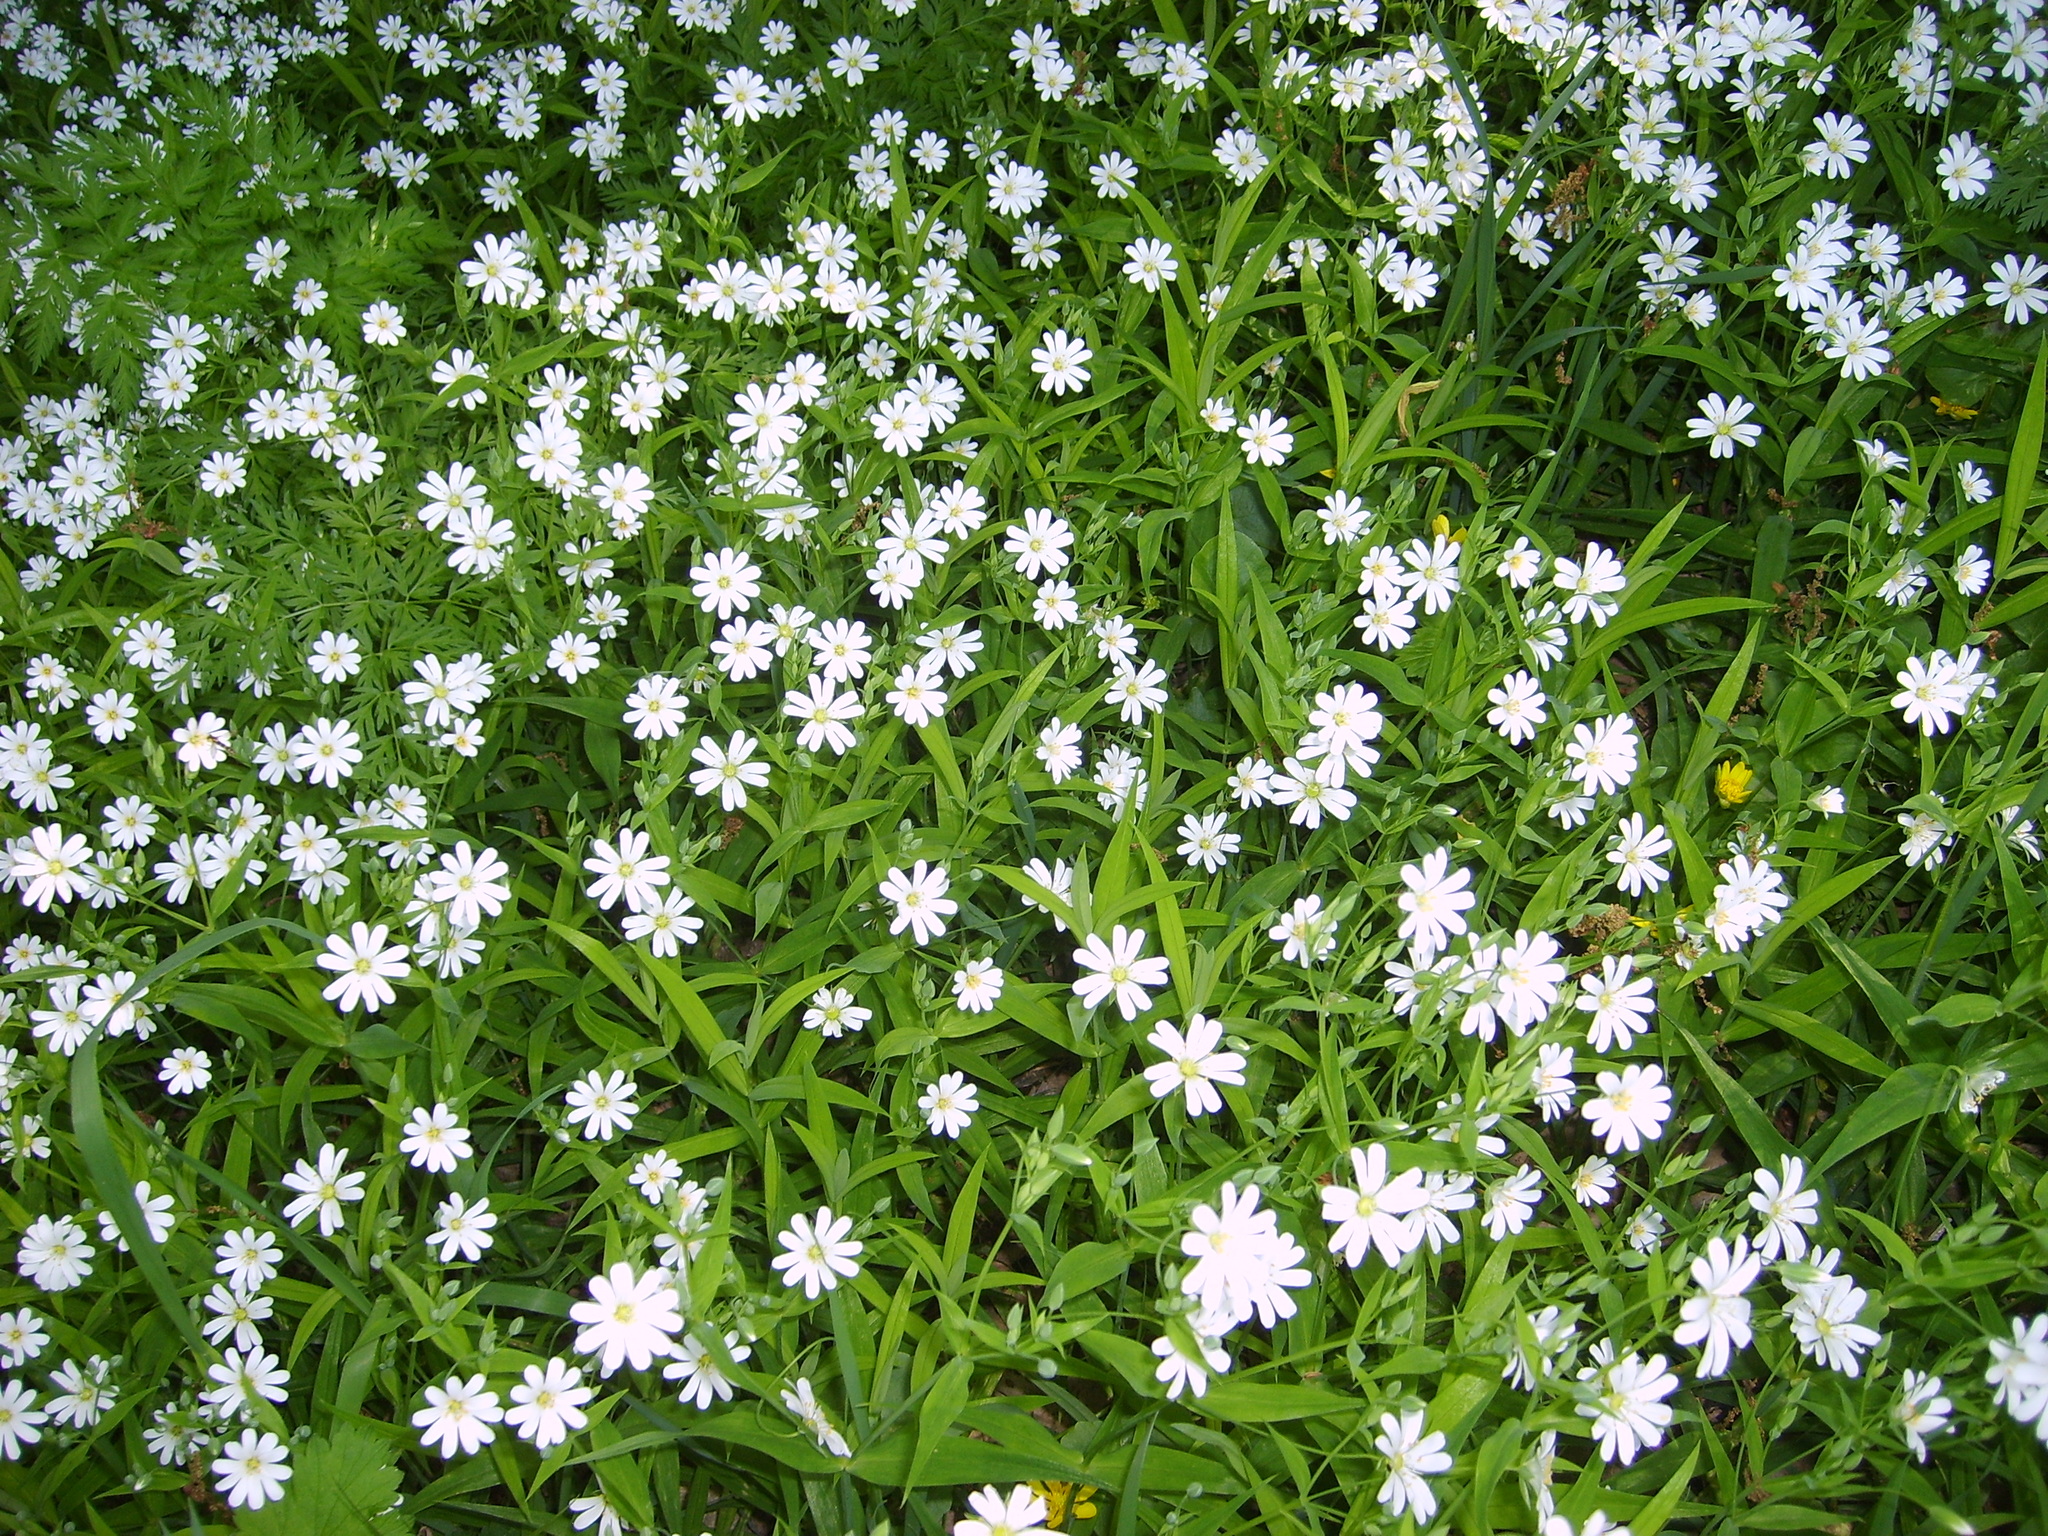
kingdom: Plantae
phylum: Tracheophyta
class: Magnoliopsida
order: Caryophyllales
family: Caryophyllaceae
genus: Rabelera
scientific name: Rabelera holostea
